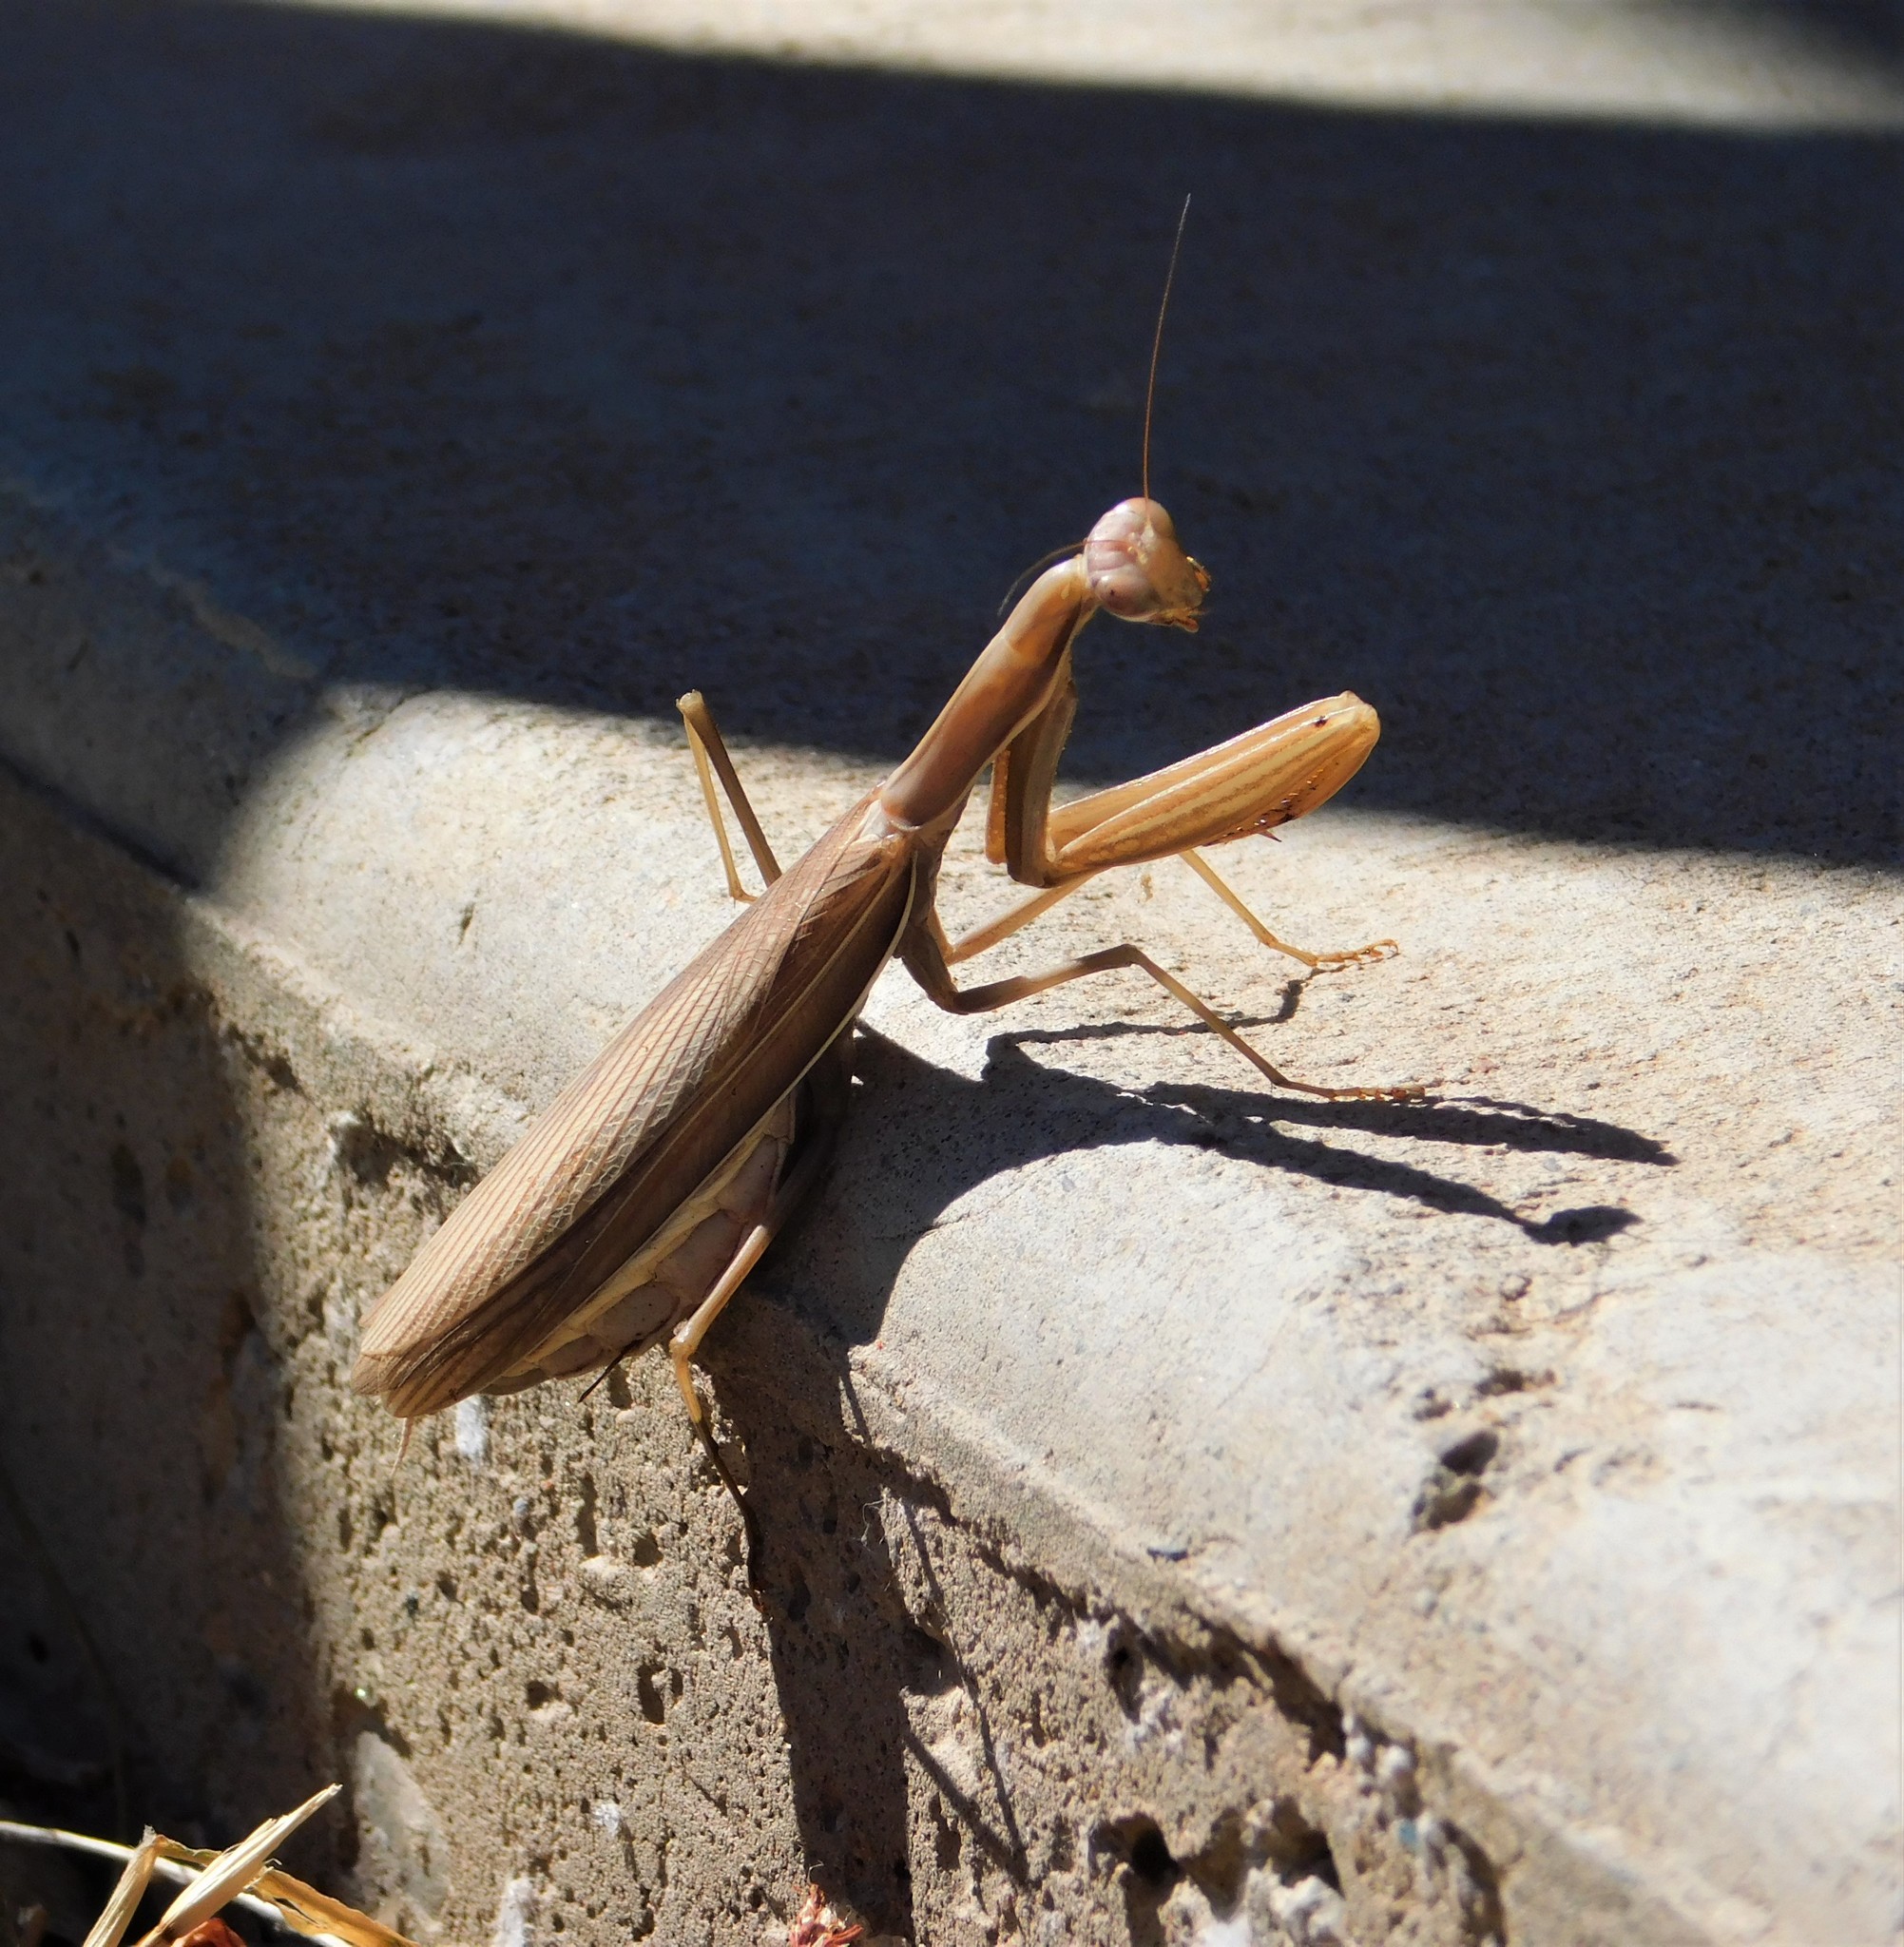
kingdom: Animalia
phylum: Arthropoda
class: Insecta
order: Mantodea
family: Mantidae
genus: Mantis
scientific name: Mantis religiosa
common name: Praying mantis
